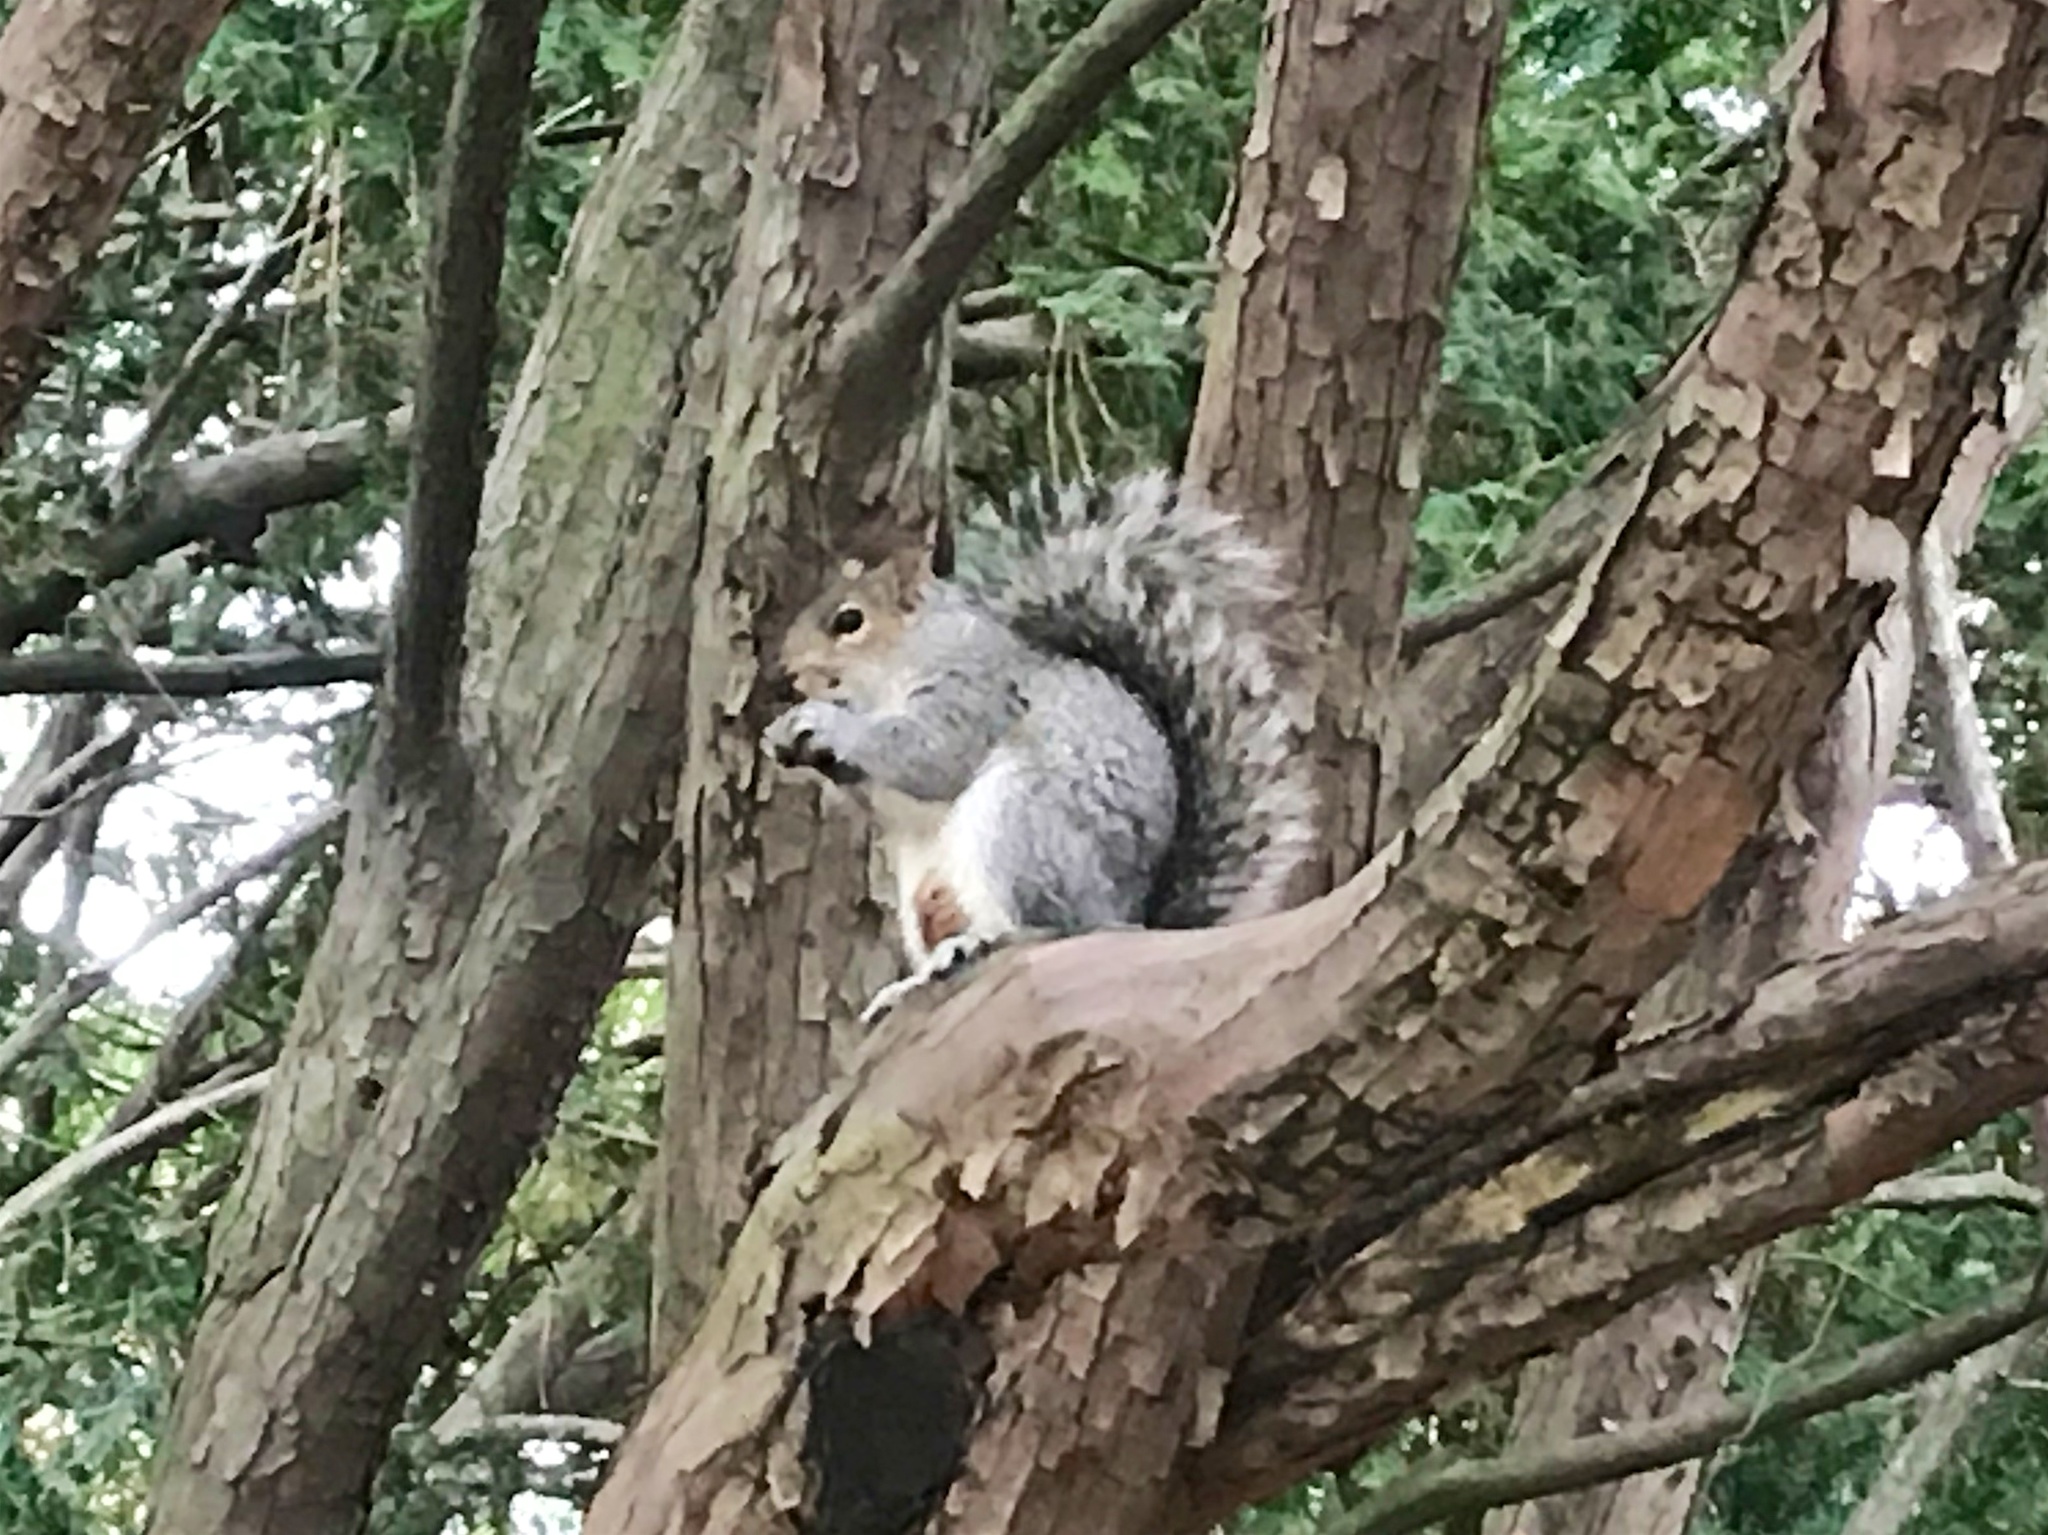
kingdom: Animalia
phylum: Chordata
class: Mammalia
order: Rodentia
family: Sciuridae
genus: Sciurus
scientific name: Sciurus carolinensis
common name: Eastern gray squirrel
